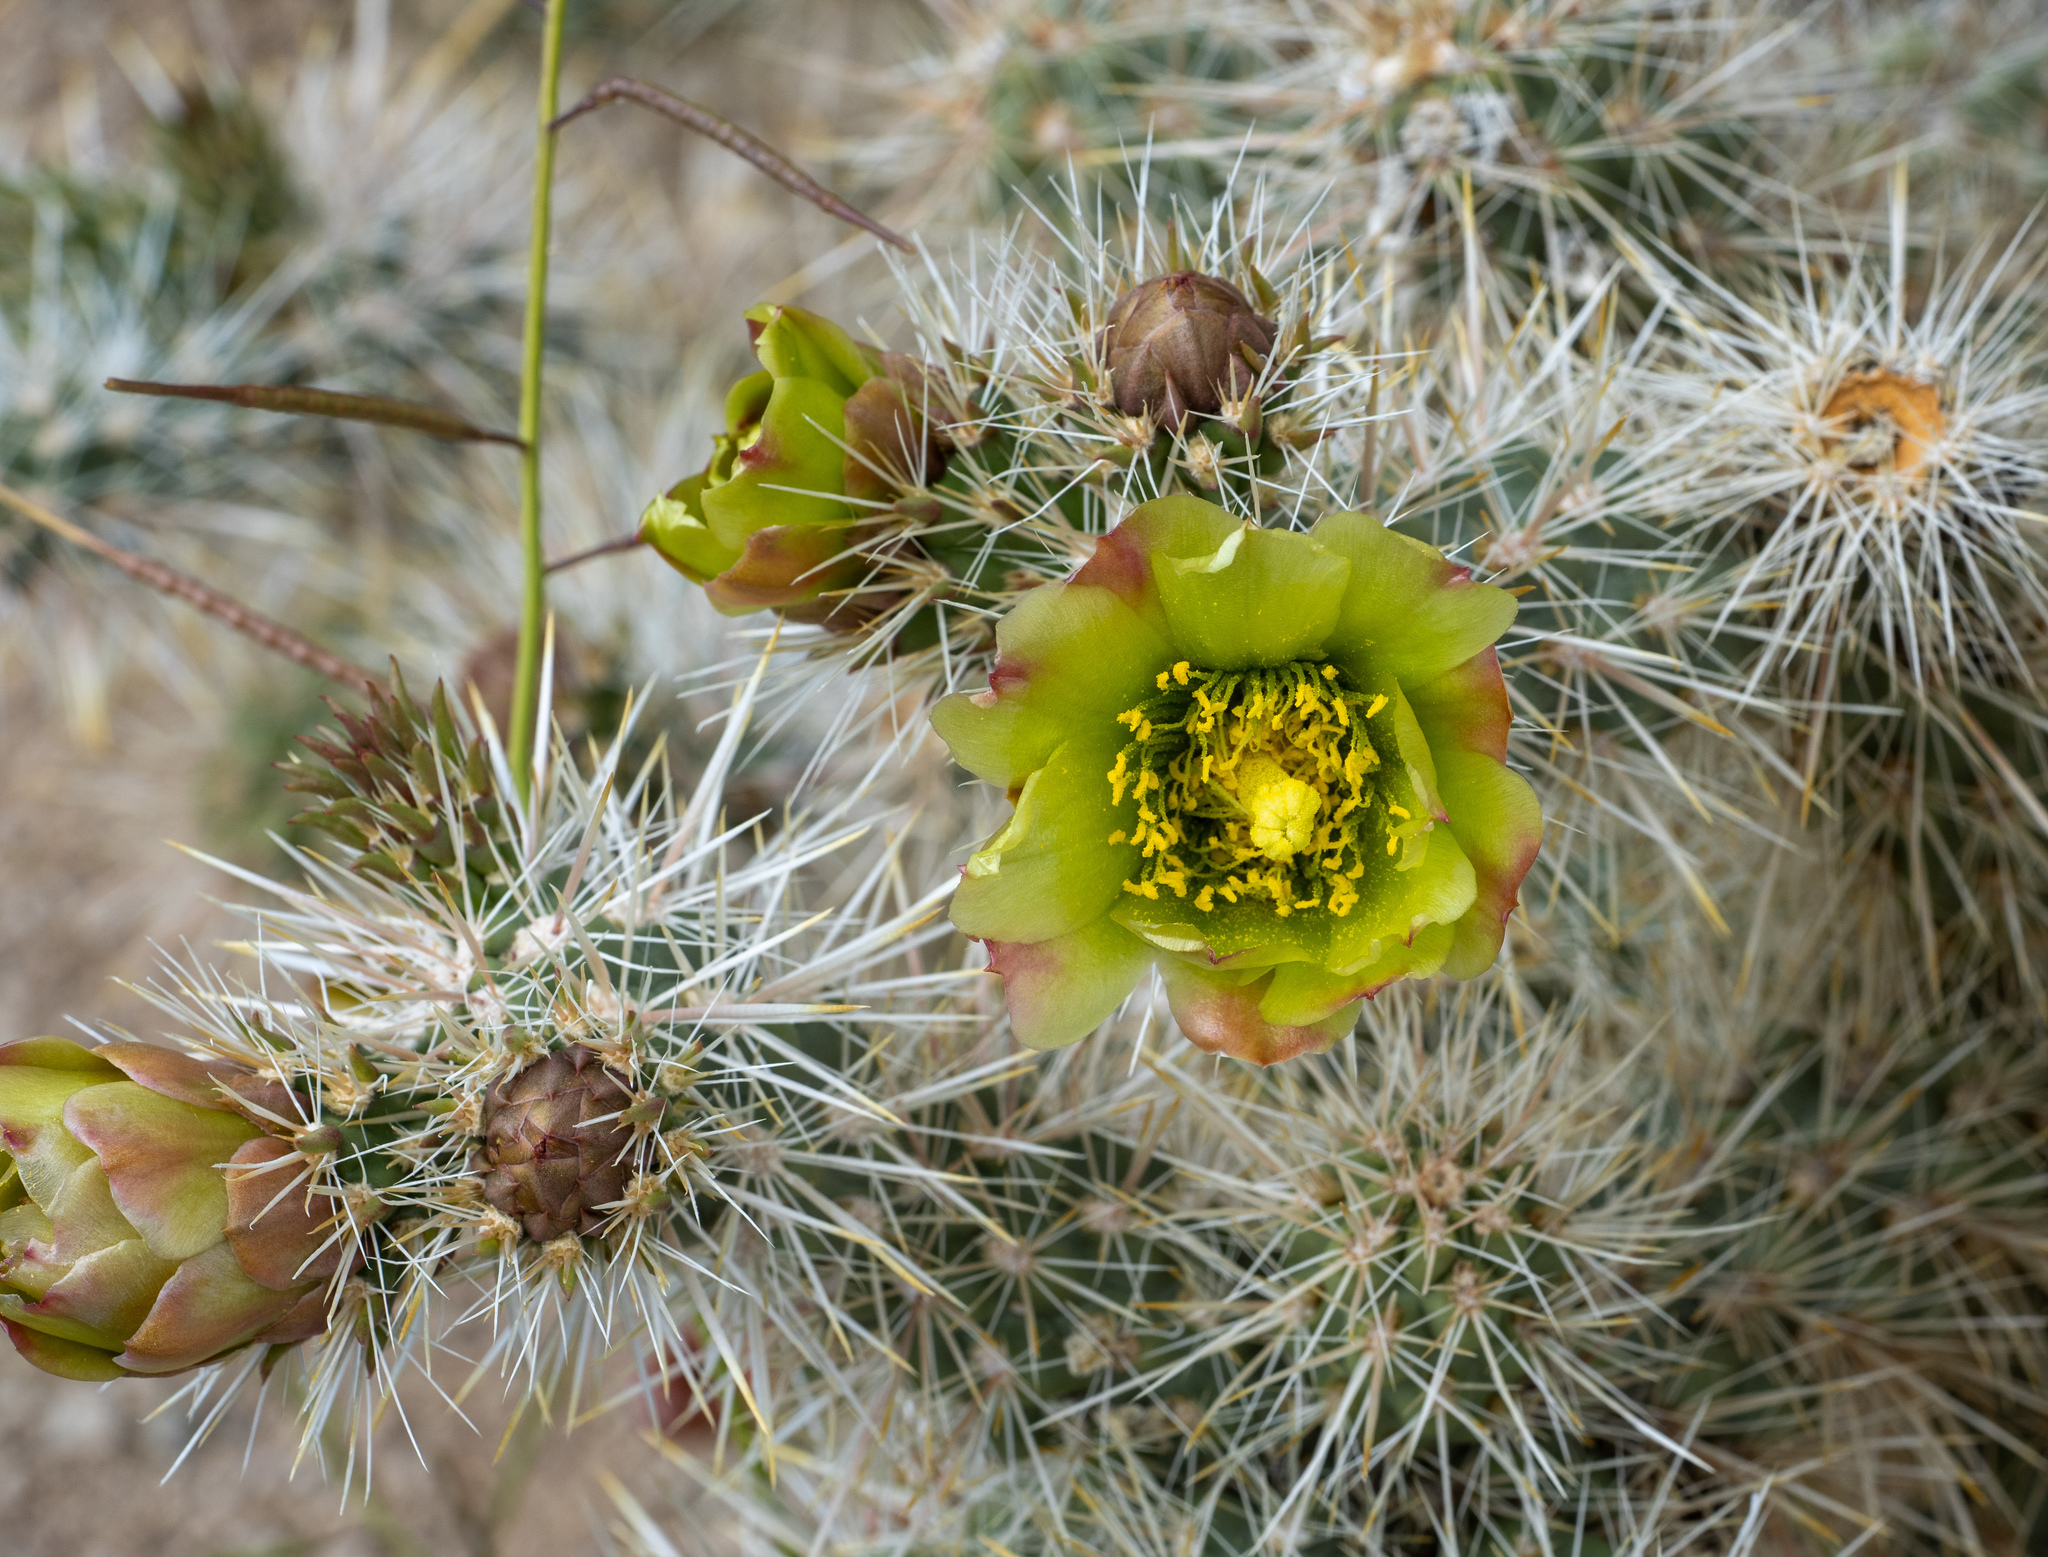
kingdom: Plantae
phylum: Tracheophyta
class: Magnoliopsida
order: Caryophyllales
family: Cactaceae
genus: Cylindropuntia
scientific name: Cylindropuntia echinocarpa
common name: Ground cholla
